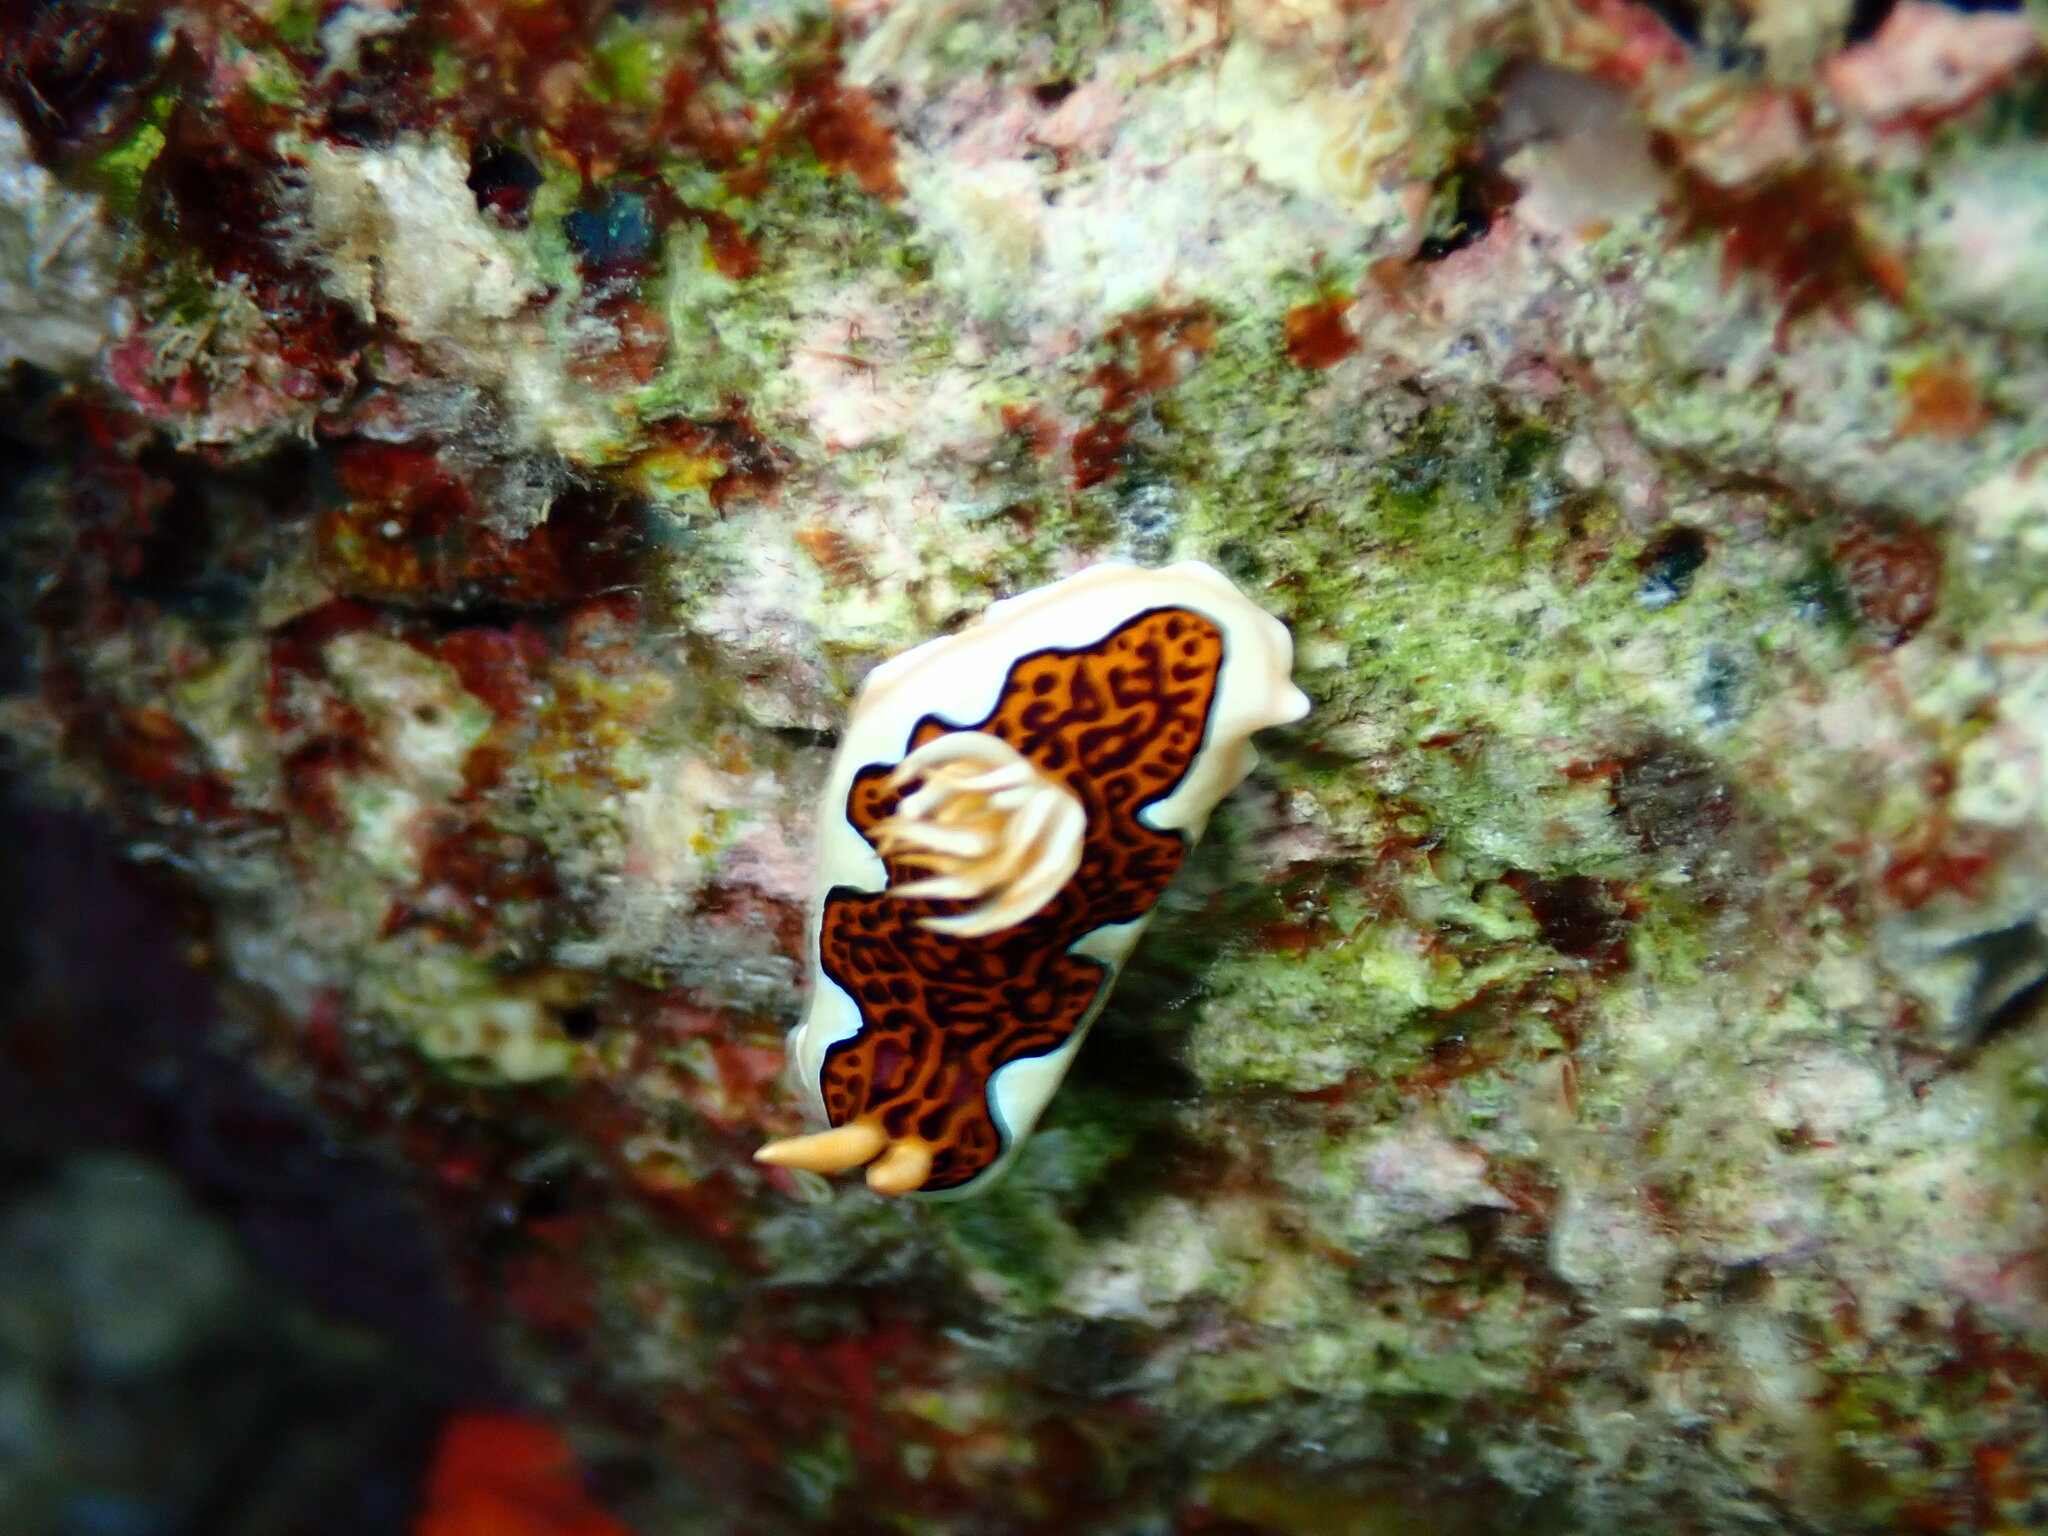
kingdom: Animalia
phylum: Mollusca
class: Gastropoda
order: Nudibranchia
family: Chromodorididae
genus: Goniobranchus
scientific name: Goniobranchus gleniei
